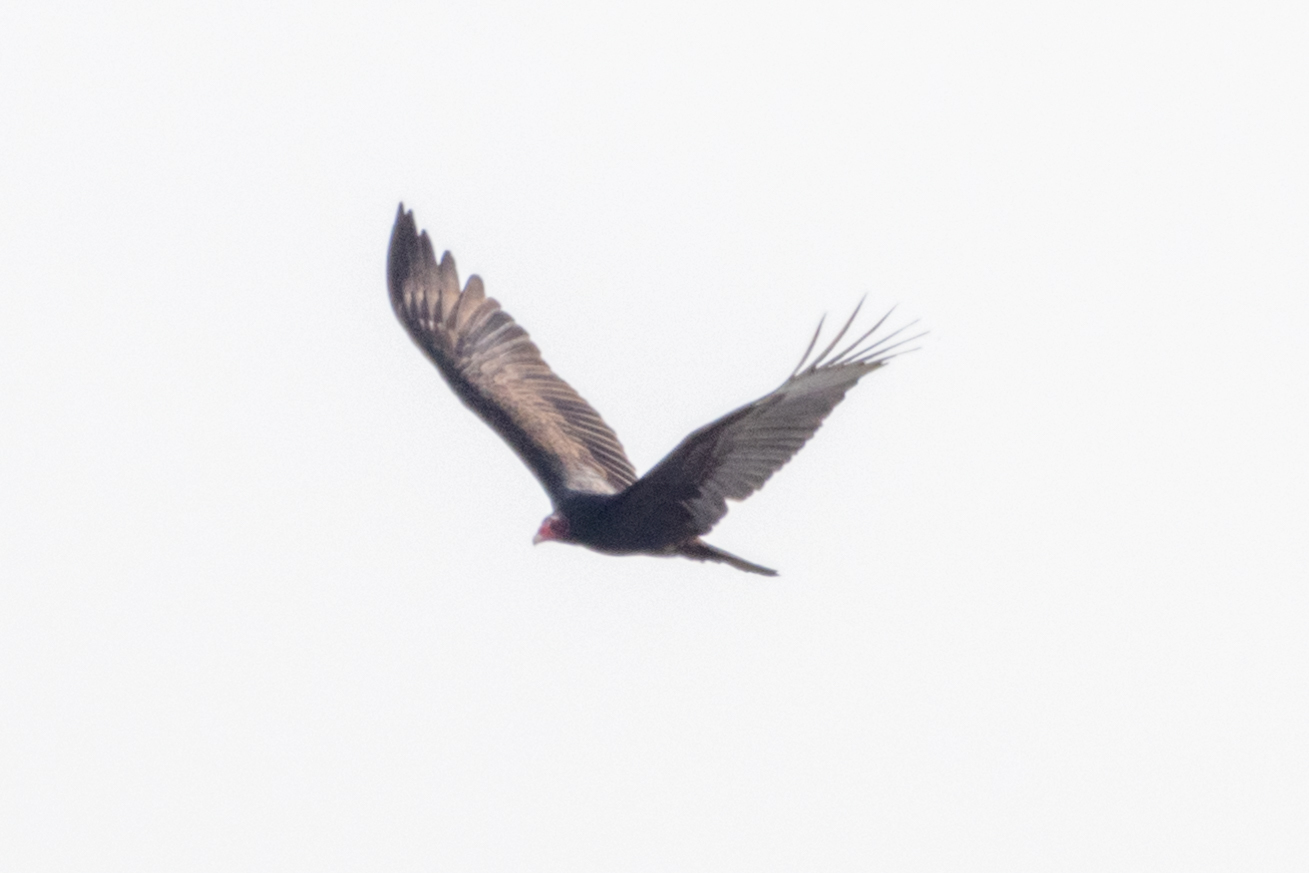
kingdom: Animalia
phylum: Chordata
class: Aves
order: Accipitriformes
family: Cathartidae
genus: Cathartes
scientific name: Cathartes aura
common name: Turkey vulture
